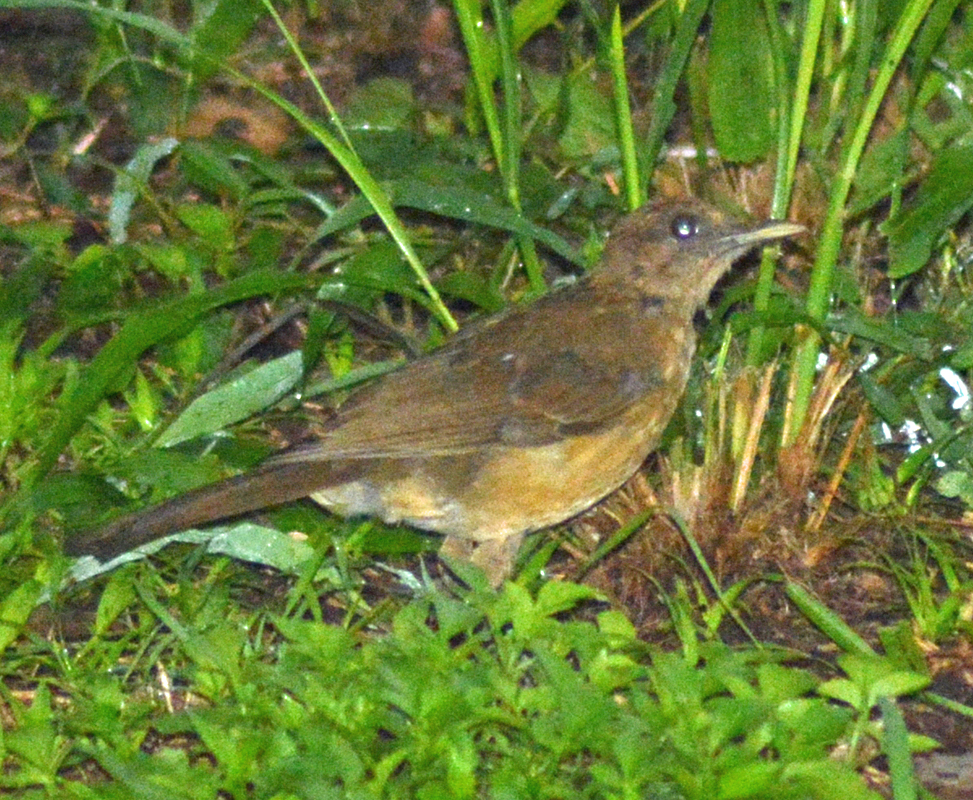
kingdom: Animalia
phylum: Chordata
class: Aves
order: Passeriformes
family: Turdidae
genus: Turdus
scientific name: Turdus grayi
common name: Clay-colored thrush
